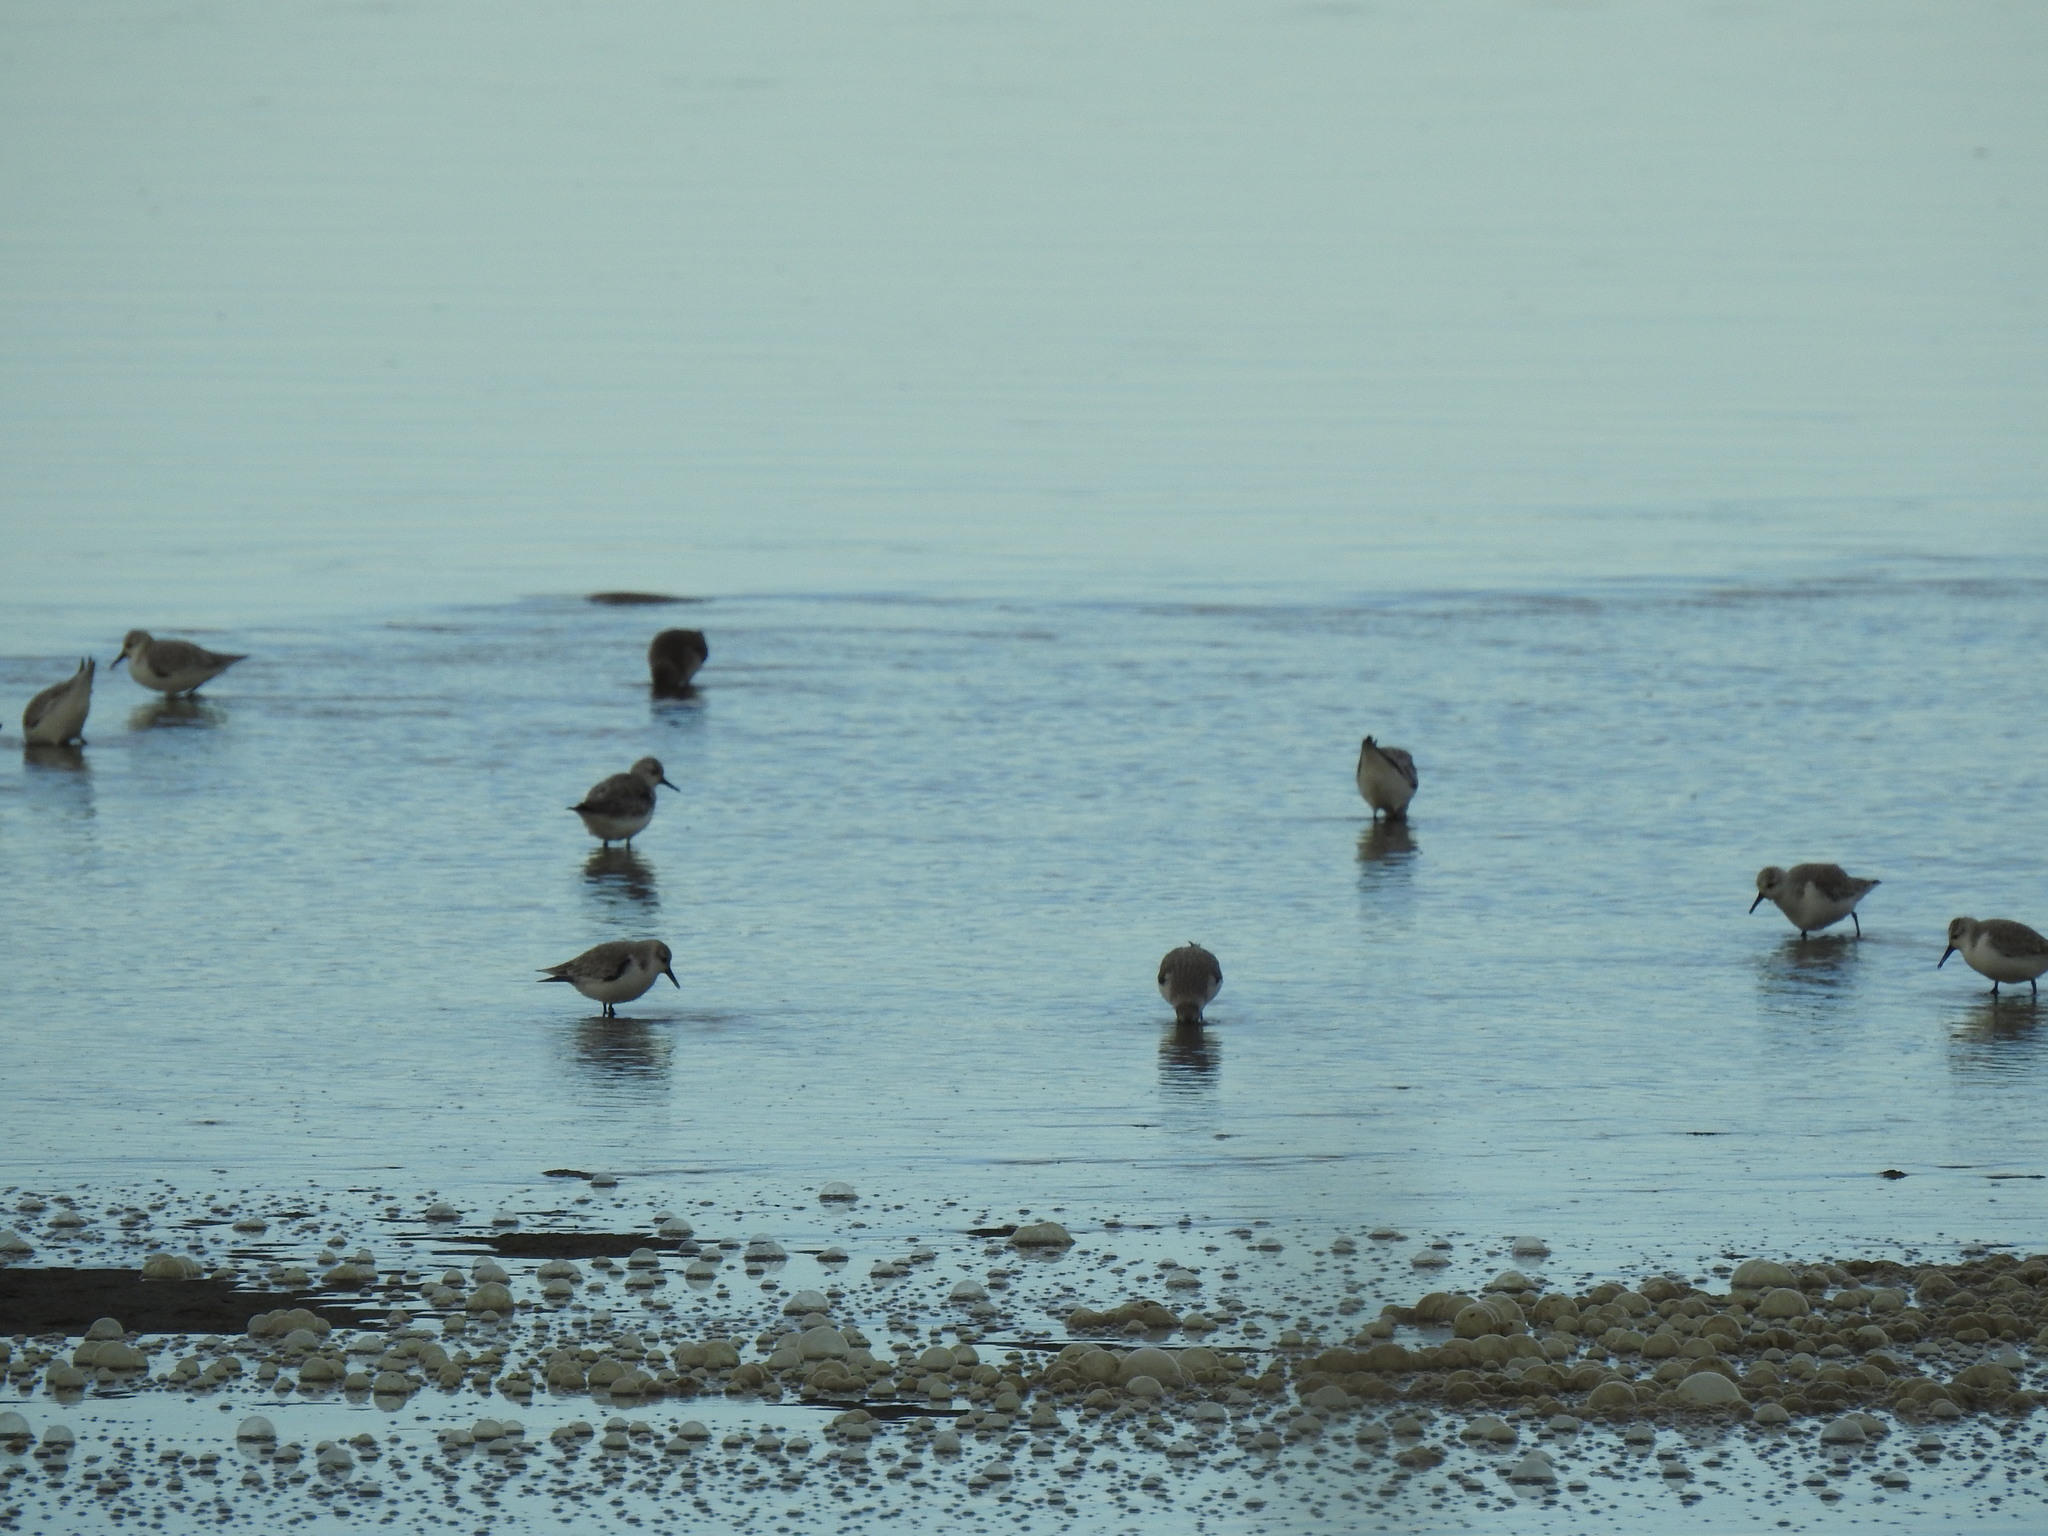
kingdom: Animalia
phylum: Chordata
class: Aves
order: Charadriiformes
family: Scolopacidae
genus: Calidris
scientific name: Calidris alba
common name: Sanderling
